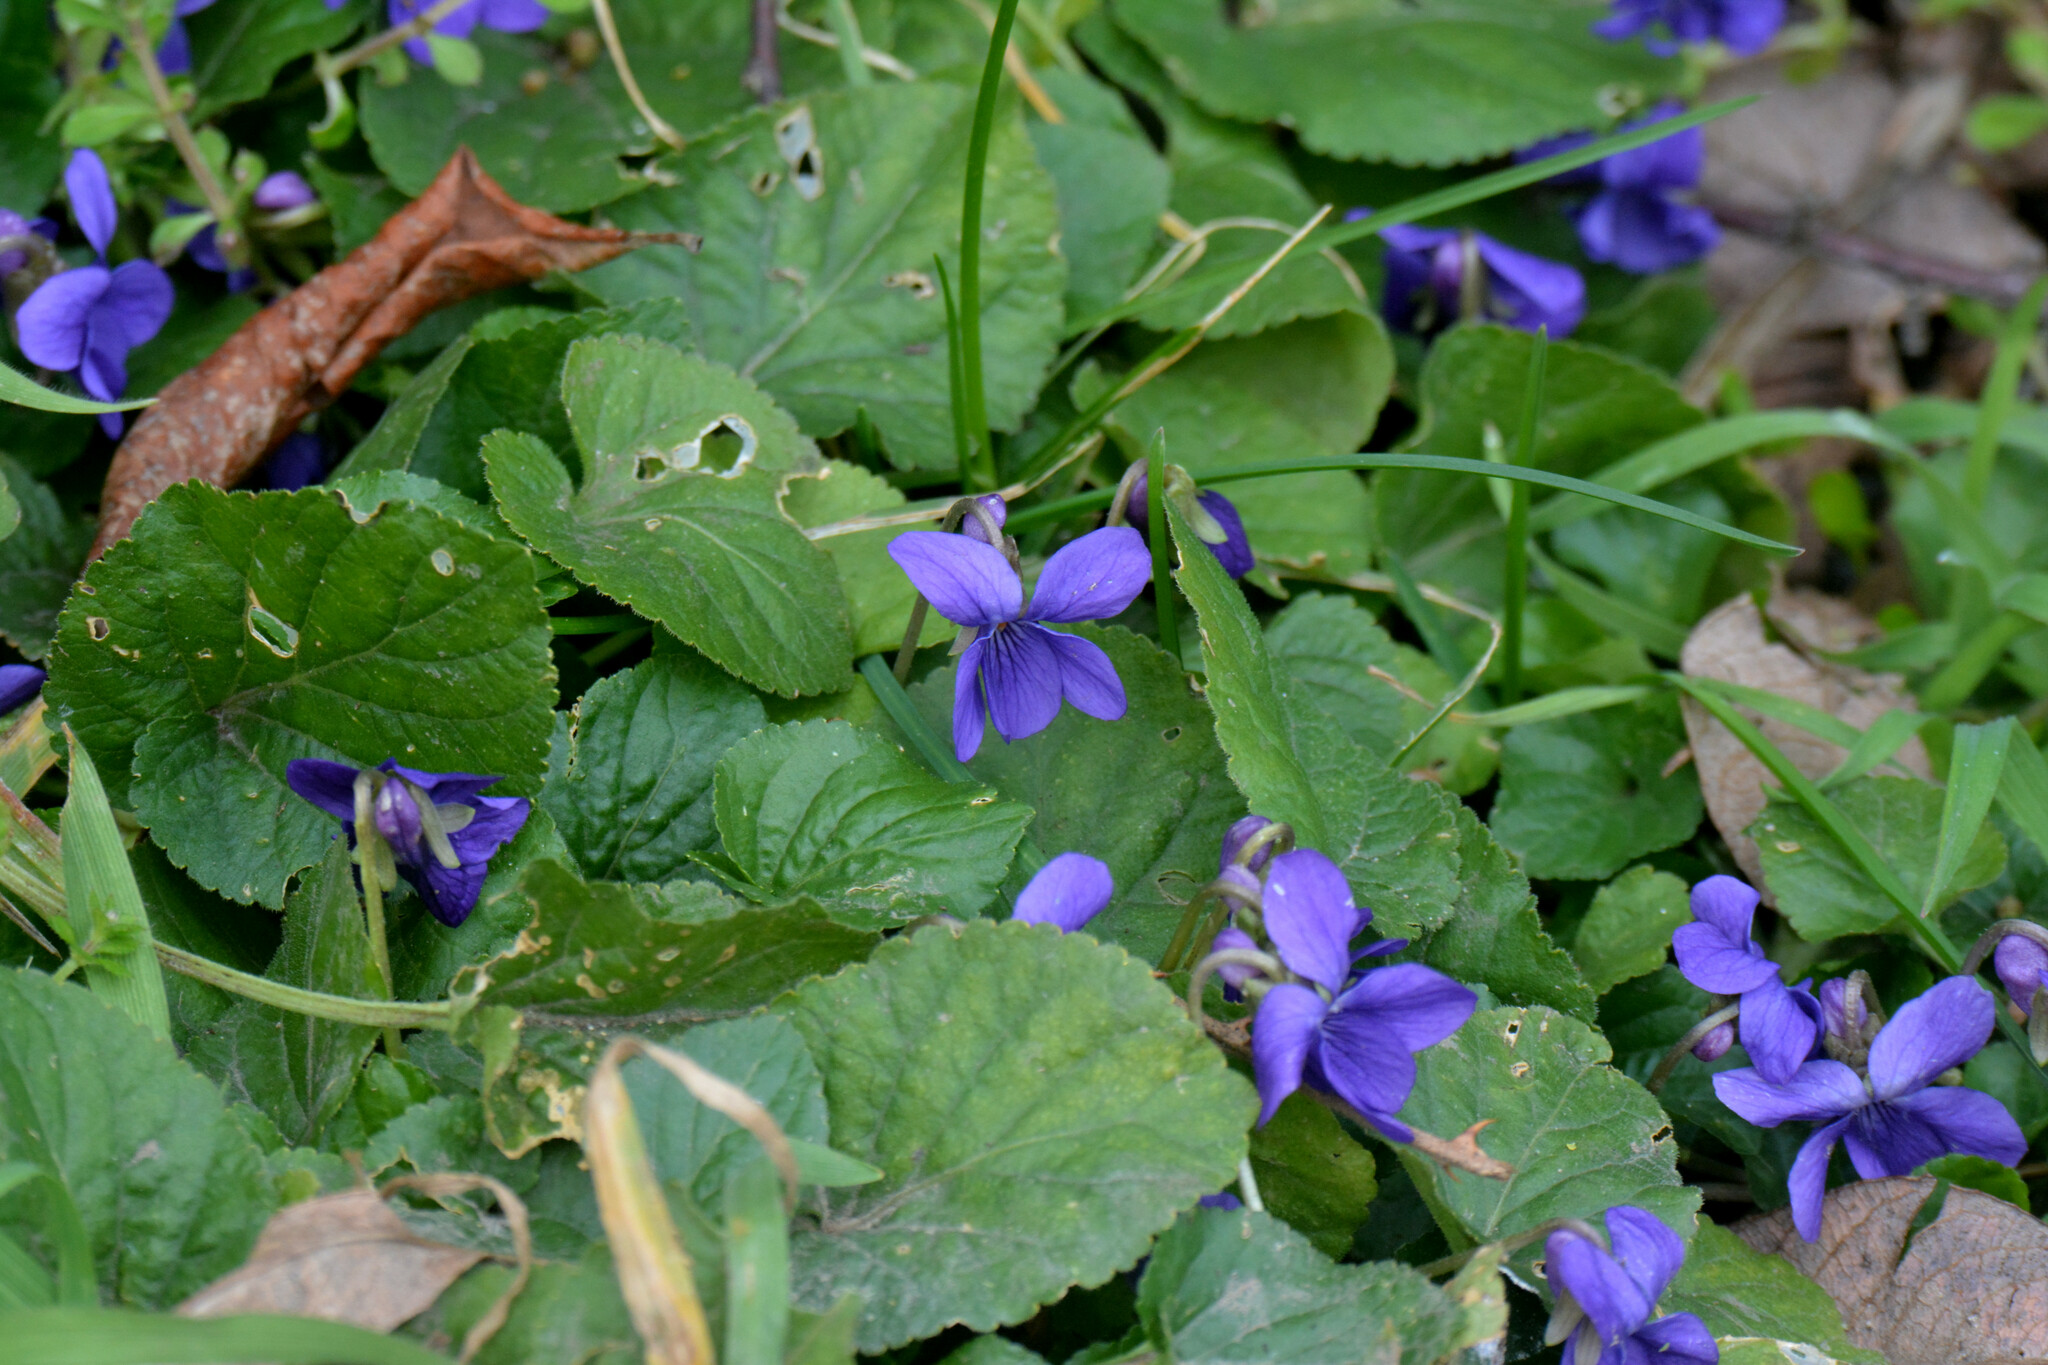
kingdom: Plantae
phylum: Tracheophyta
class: Magnoliopsida
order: Malpighiales
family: Violaceae
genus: Viola
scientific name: Viola odorata
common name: Sweet violet
